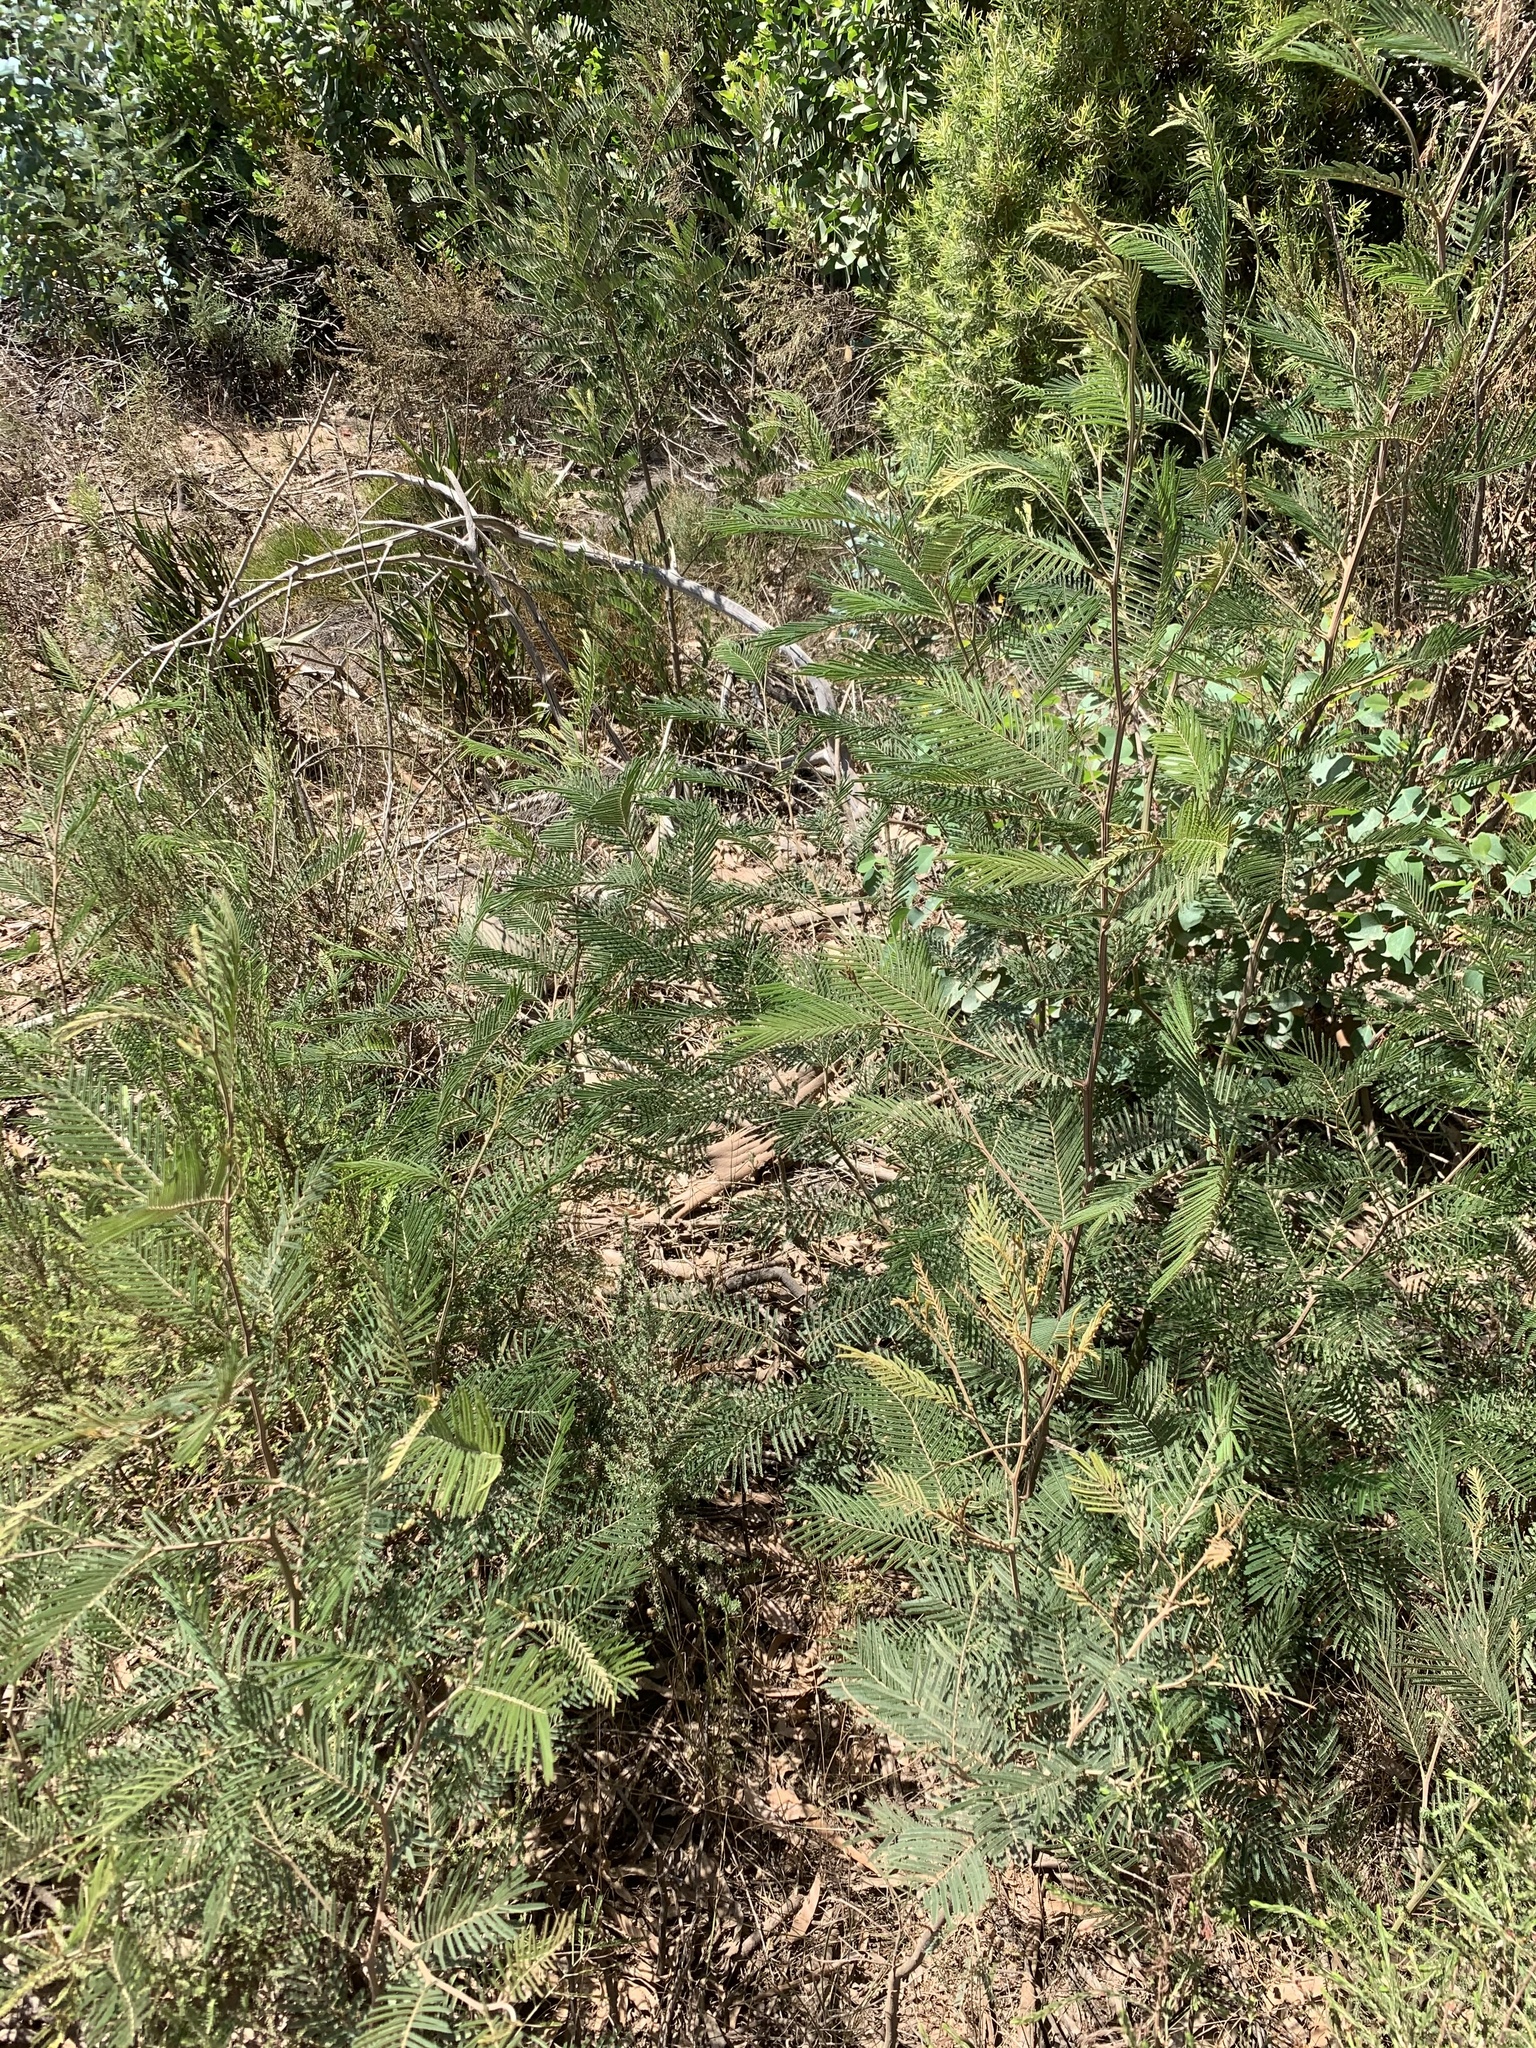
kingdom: Plantae
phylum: Tracheophyta
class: Magnoliopsida
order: Fabales
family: Fabaceae
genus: Acacia
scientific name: Acacia mearnsii
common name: Black wattle
